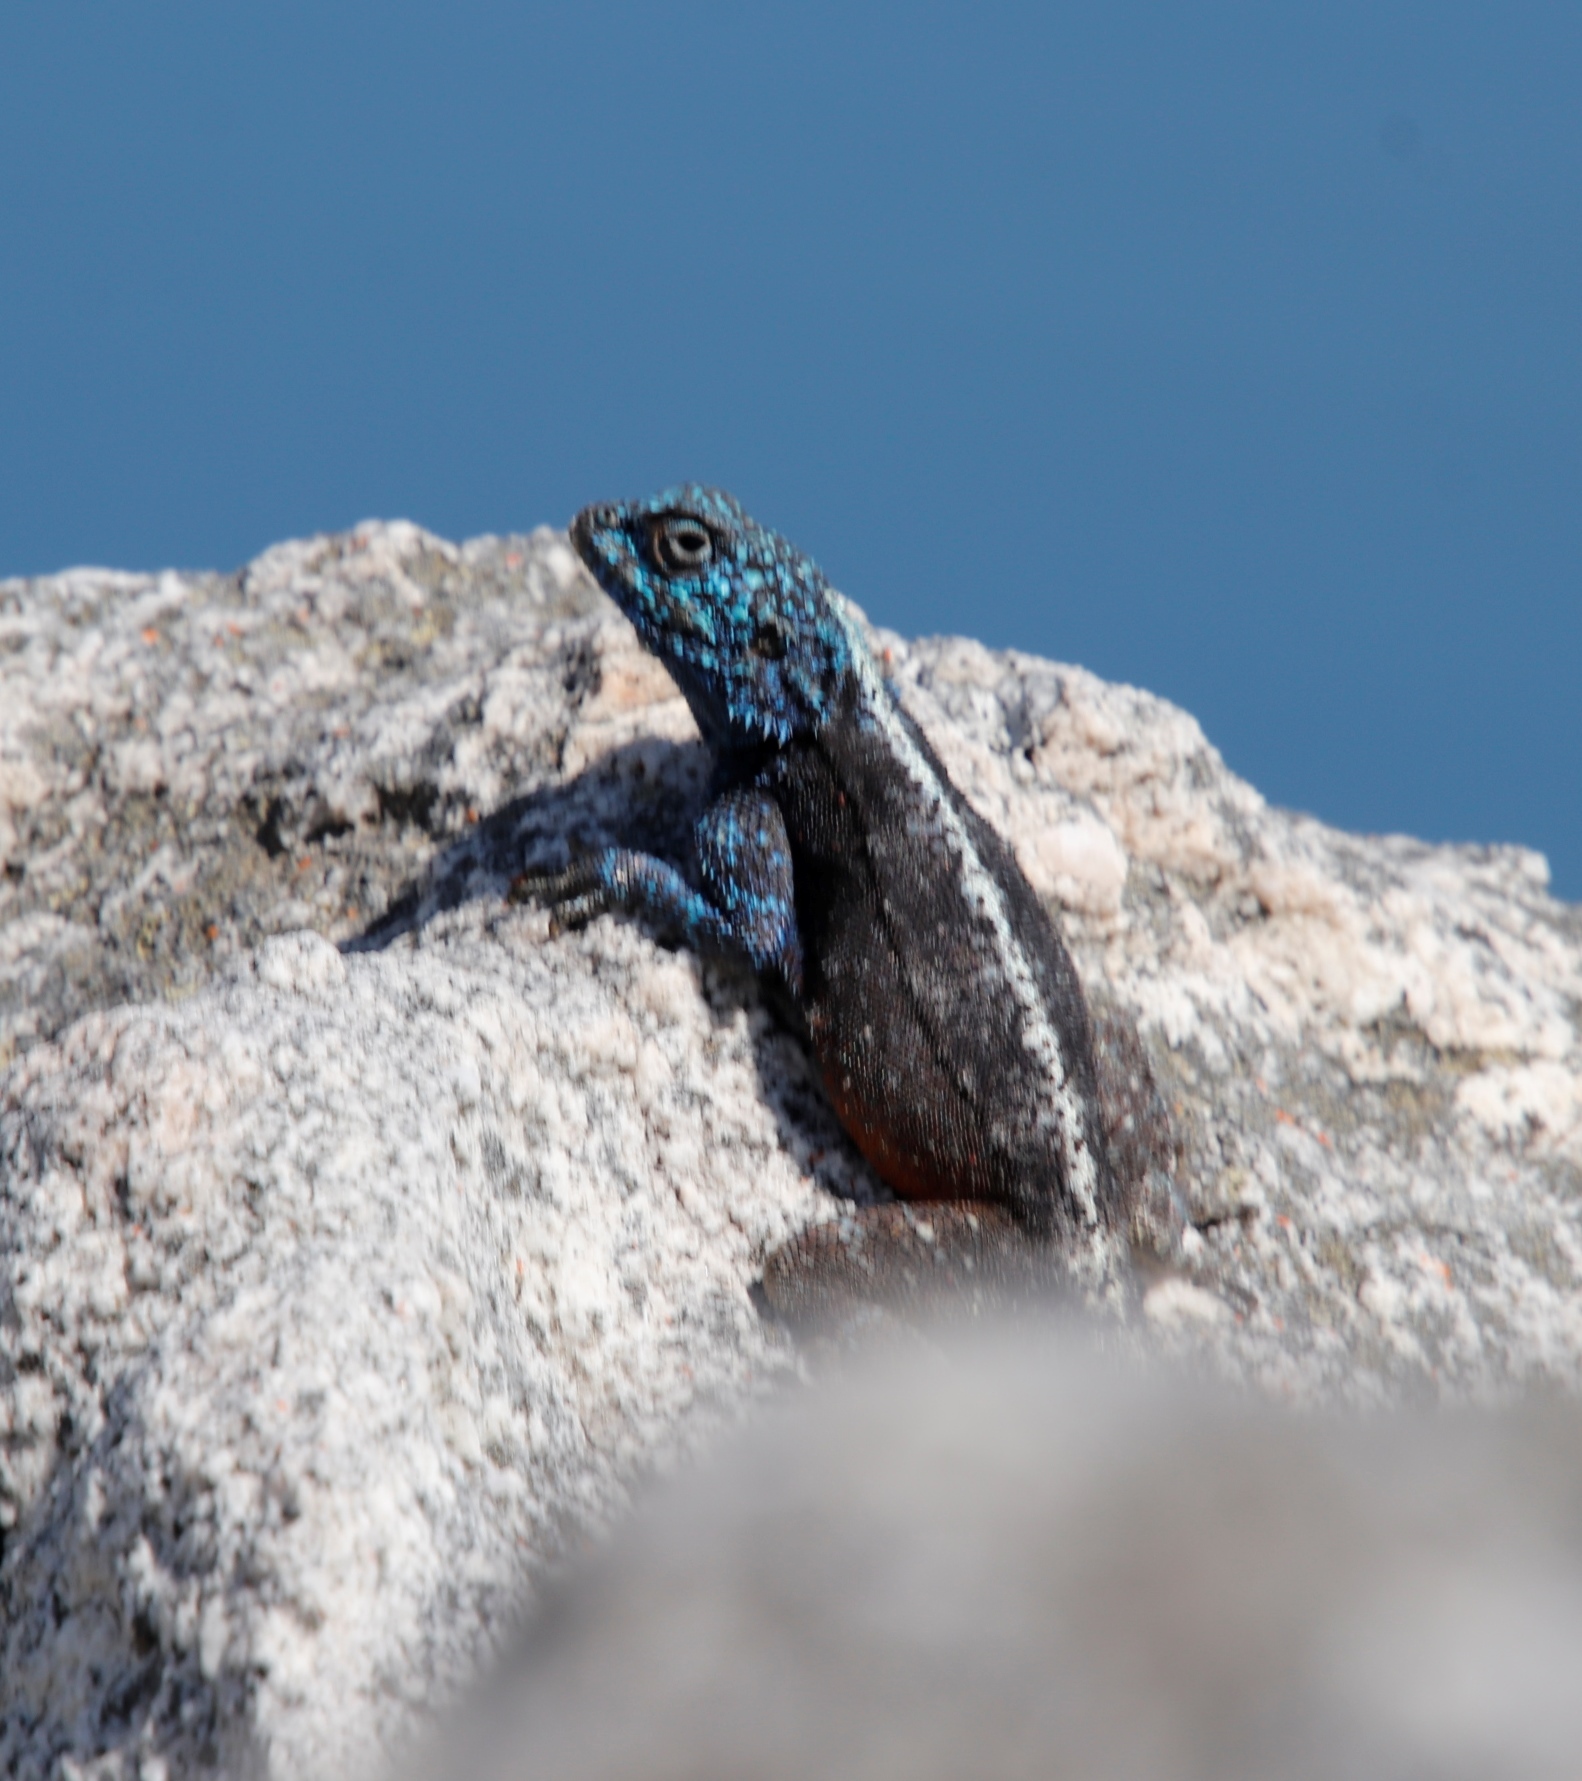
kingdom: Animalia
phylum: Chordata
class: Squamata
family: Agamidae
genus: Agama
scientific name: Agama atra
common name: Southern african rock agama
